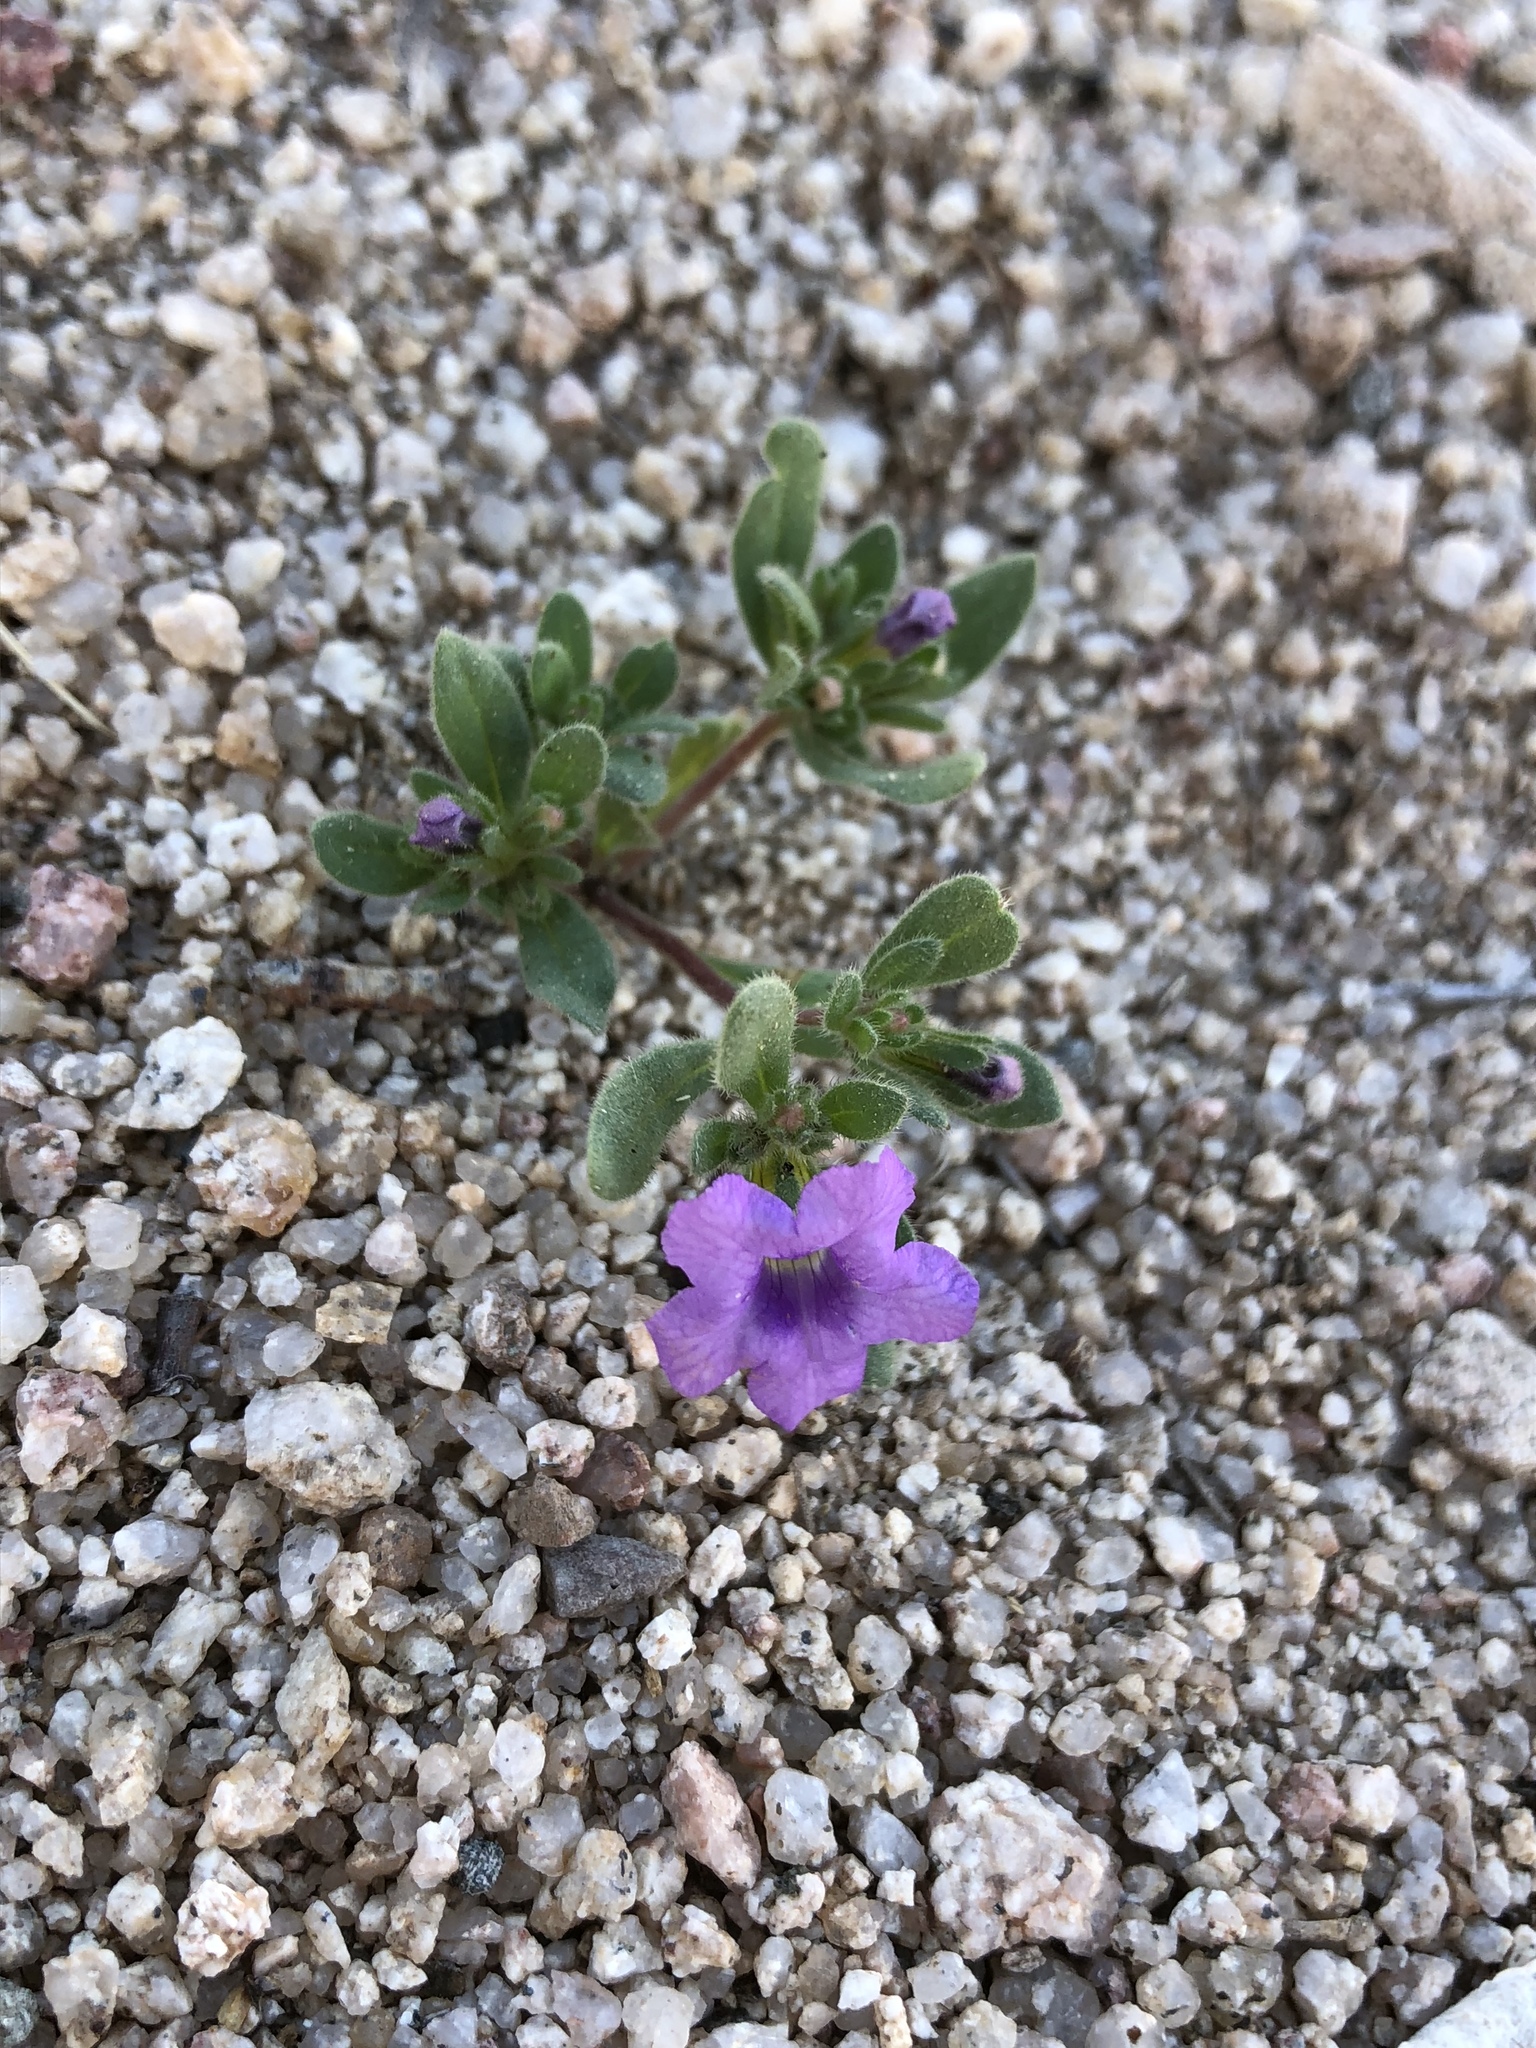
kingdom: Plantae
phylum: Tracheophyta
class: Magnoliopsida
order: Boraginales
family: Namaceae
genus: Nama
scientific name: Nama hispida
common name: Bristly nama
